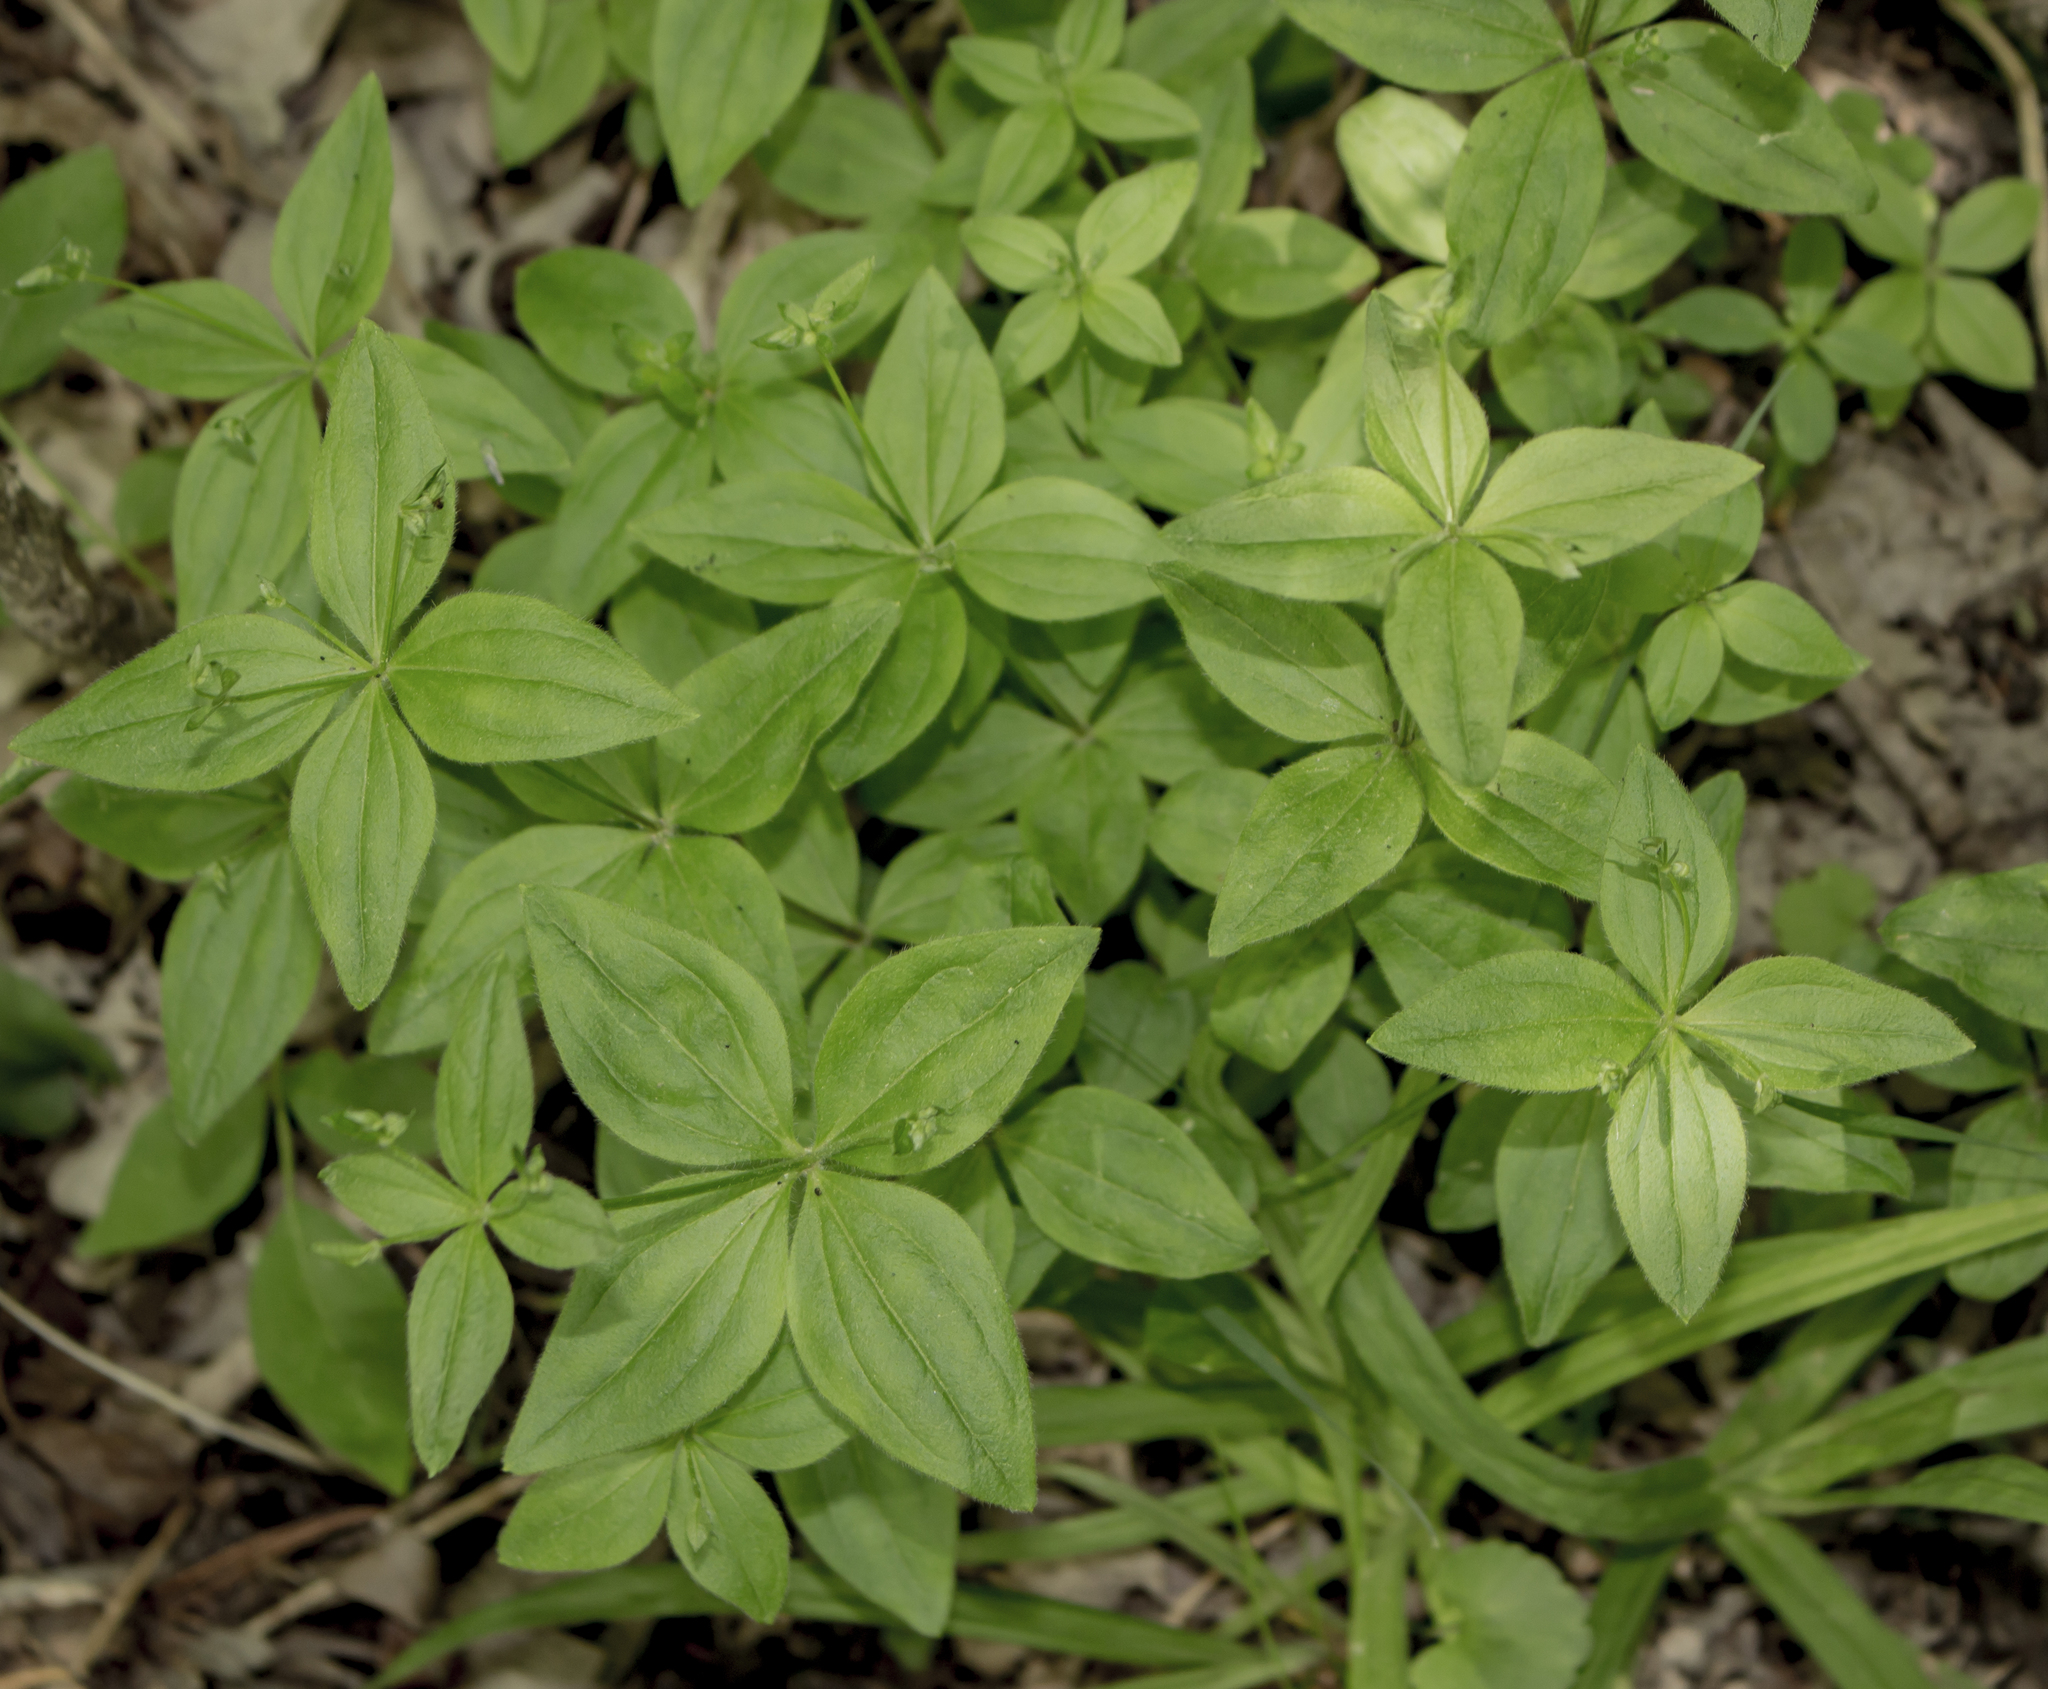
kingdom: Plantae
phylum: Tracheophyta
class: Magnoliopsida
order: Gentianales
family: Rubiaceae
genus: Galium
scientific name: Galium circaezans
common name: Forest bedstraw
